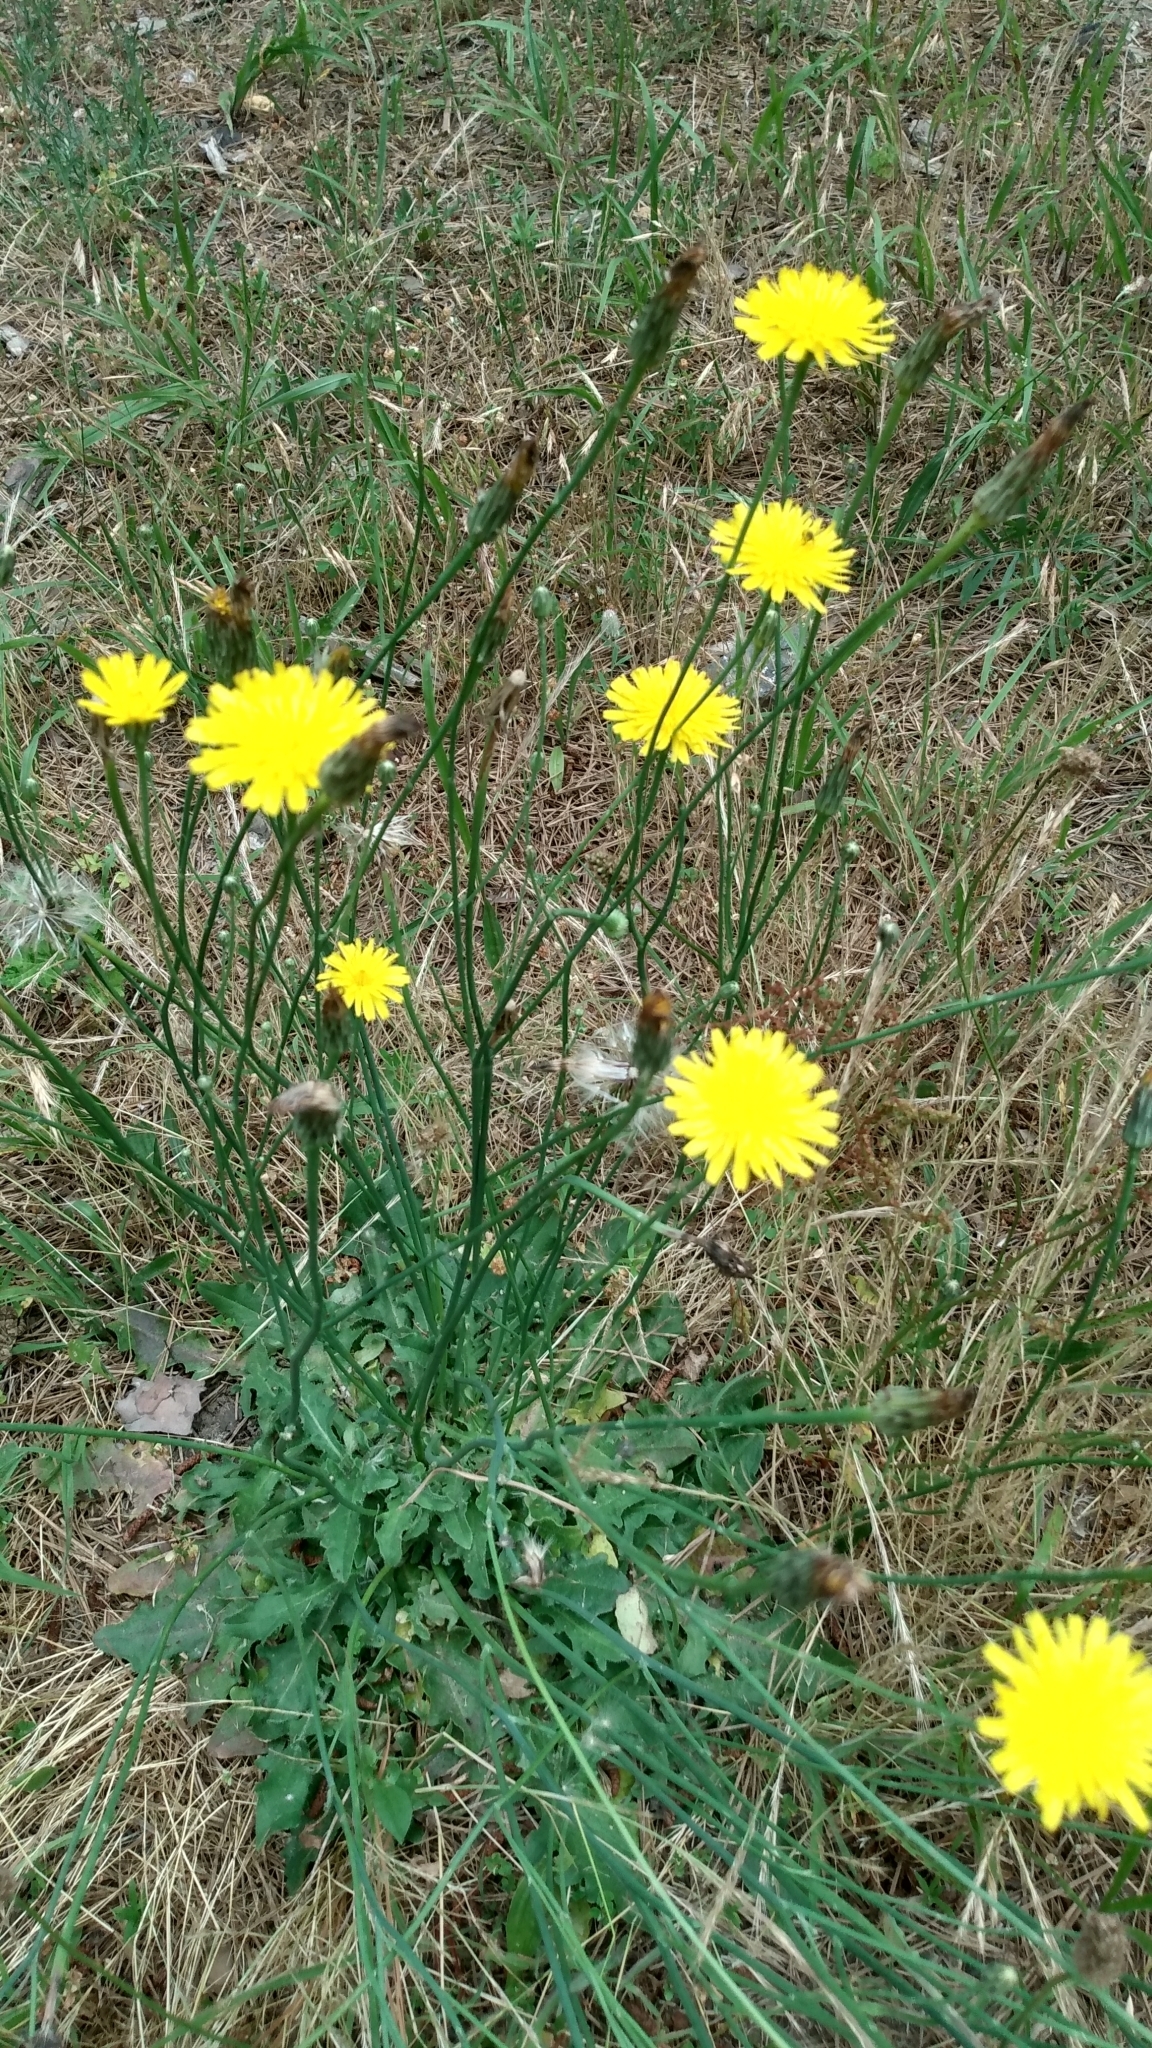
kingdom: Plantae
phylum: Tracheophyta
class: Magnoliopsida
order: Asterales
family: Asteraceae
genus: Hypochaeris
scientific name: Hypochaeris radicata
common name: Flatweed
